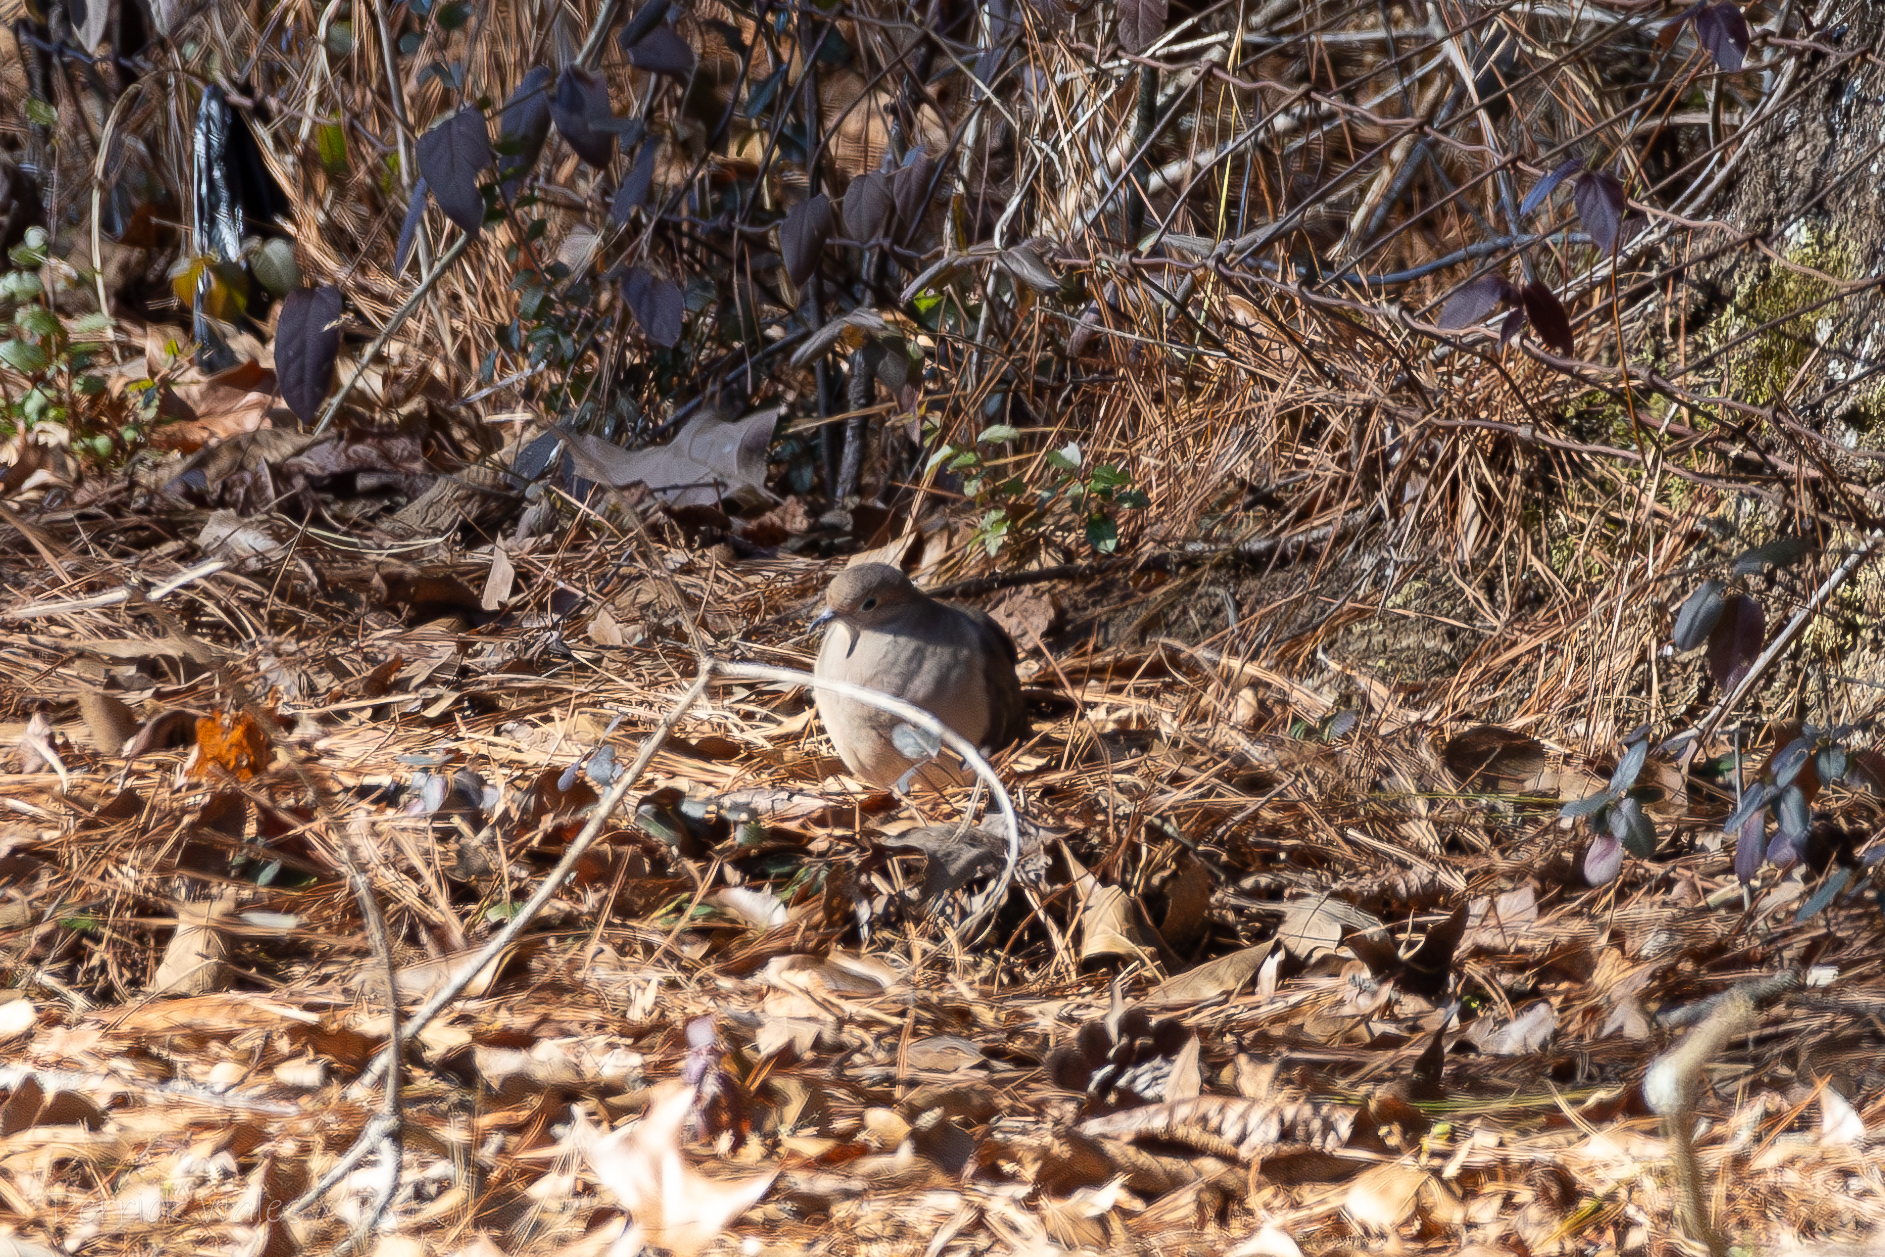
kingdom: Animalia
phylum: Chordata
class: Aves
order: Columbiformes
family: Columbidae
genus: Zenaida
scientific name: Zenaida macroura
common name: Mourning dove
